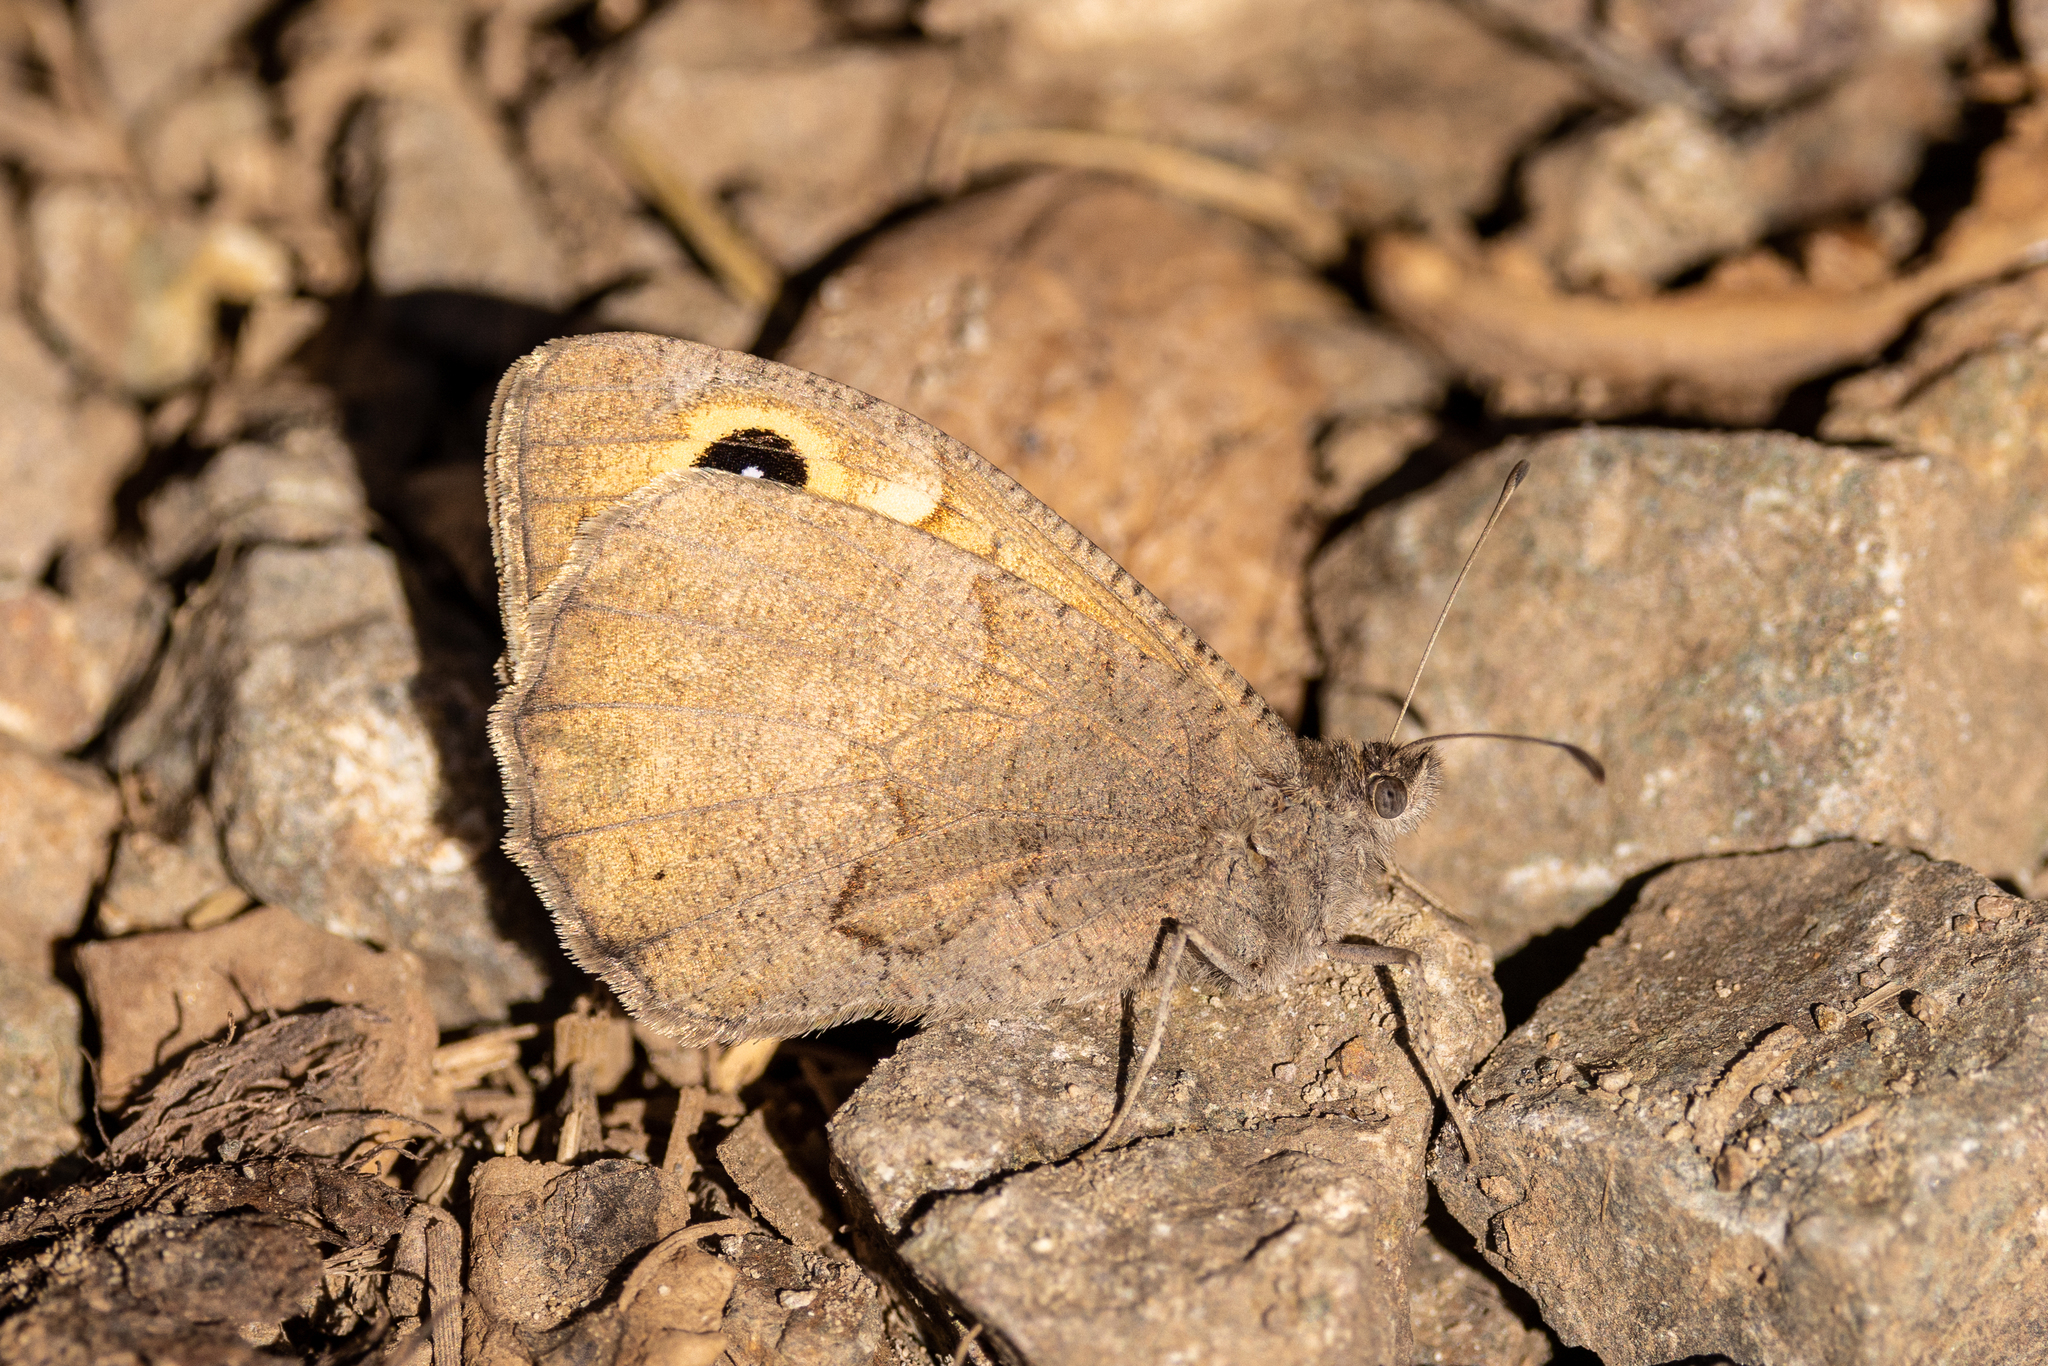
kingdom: Animalia
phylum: Arthropoda
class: Insecta
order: Lepidoptera
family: Nymphalidae
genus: Hipparchia
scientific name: Hipparchia hansii
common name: Austaut's grayling
